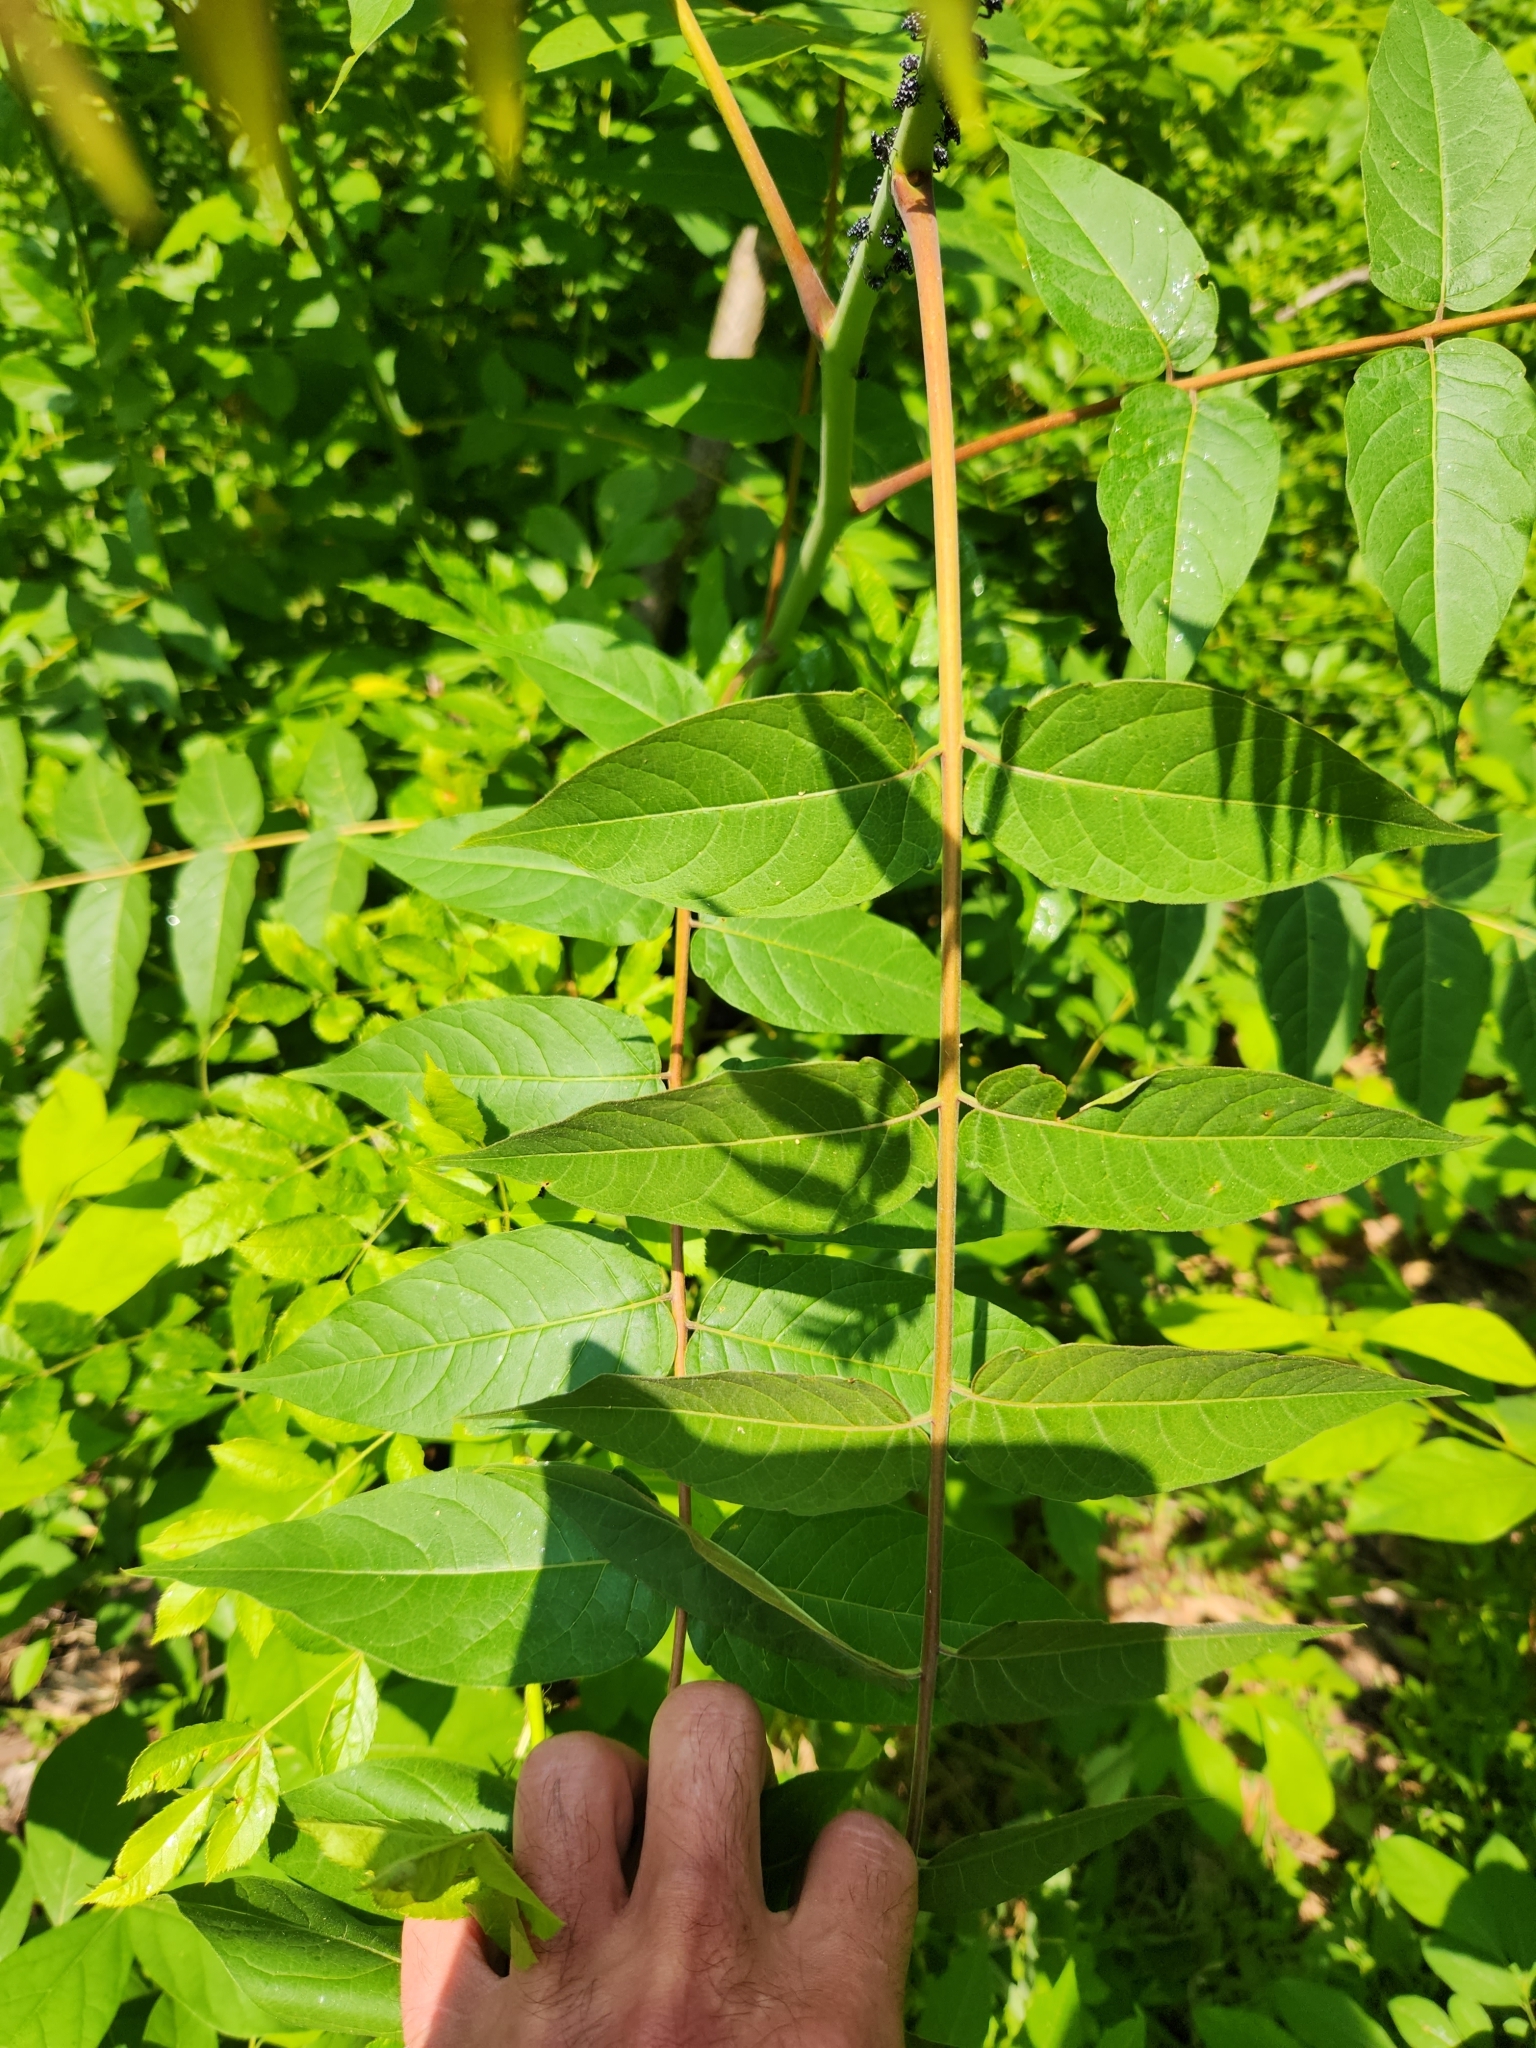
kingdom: Plantae
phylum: Tracheophyta
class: Magnoliopsida
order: Sapindales
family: Simaroubaceae
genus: Ailanthus
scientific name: Ailanthus altissima
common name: Tree-of-heaven
